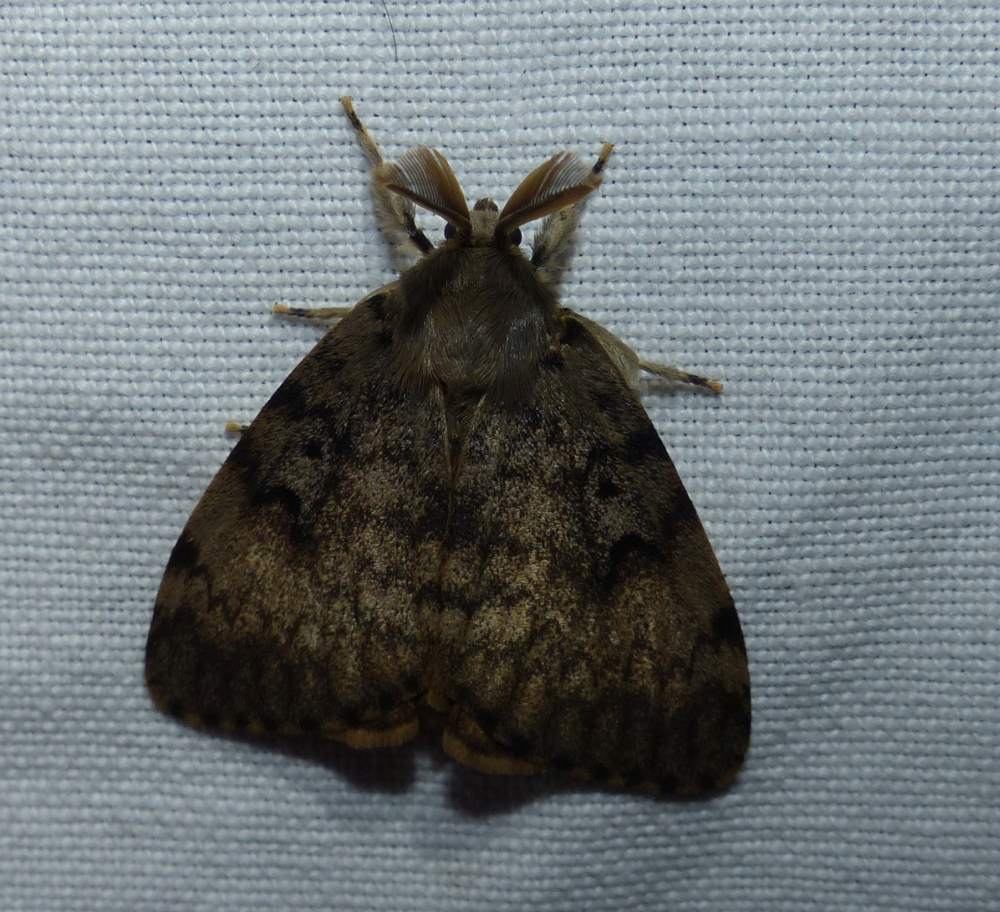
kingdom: Animalia
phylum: Arthropoda
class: Insecta
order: Lepidoptera
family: Erebidae
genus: Lymantria
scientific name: Lymantria dispar
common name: Gypsy moth
